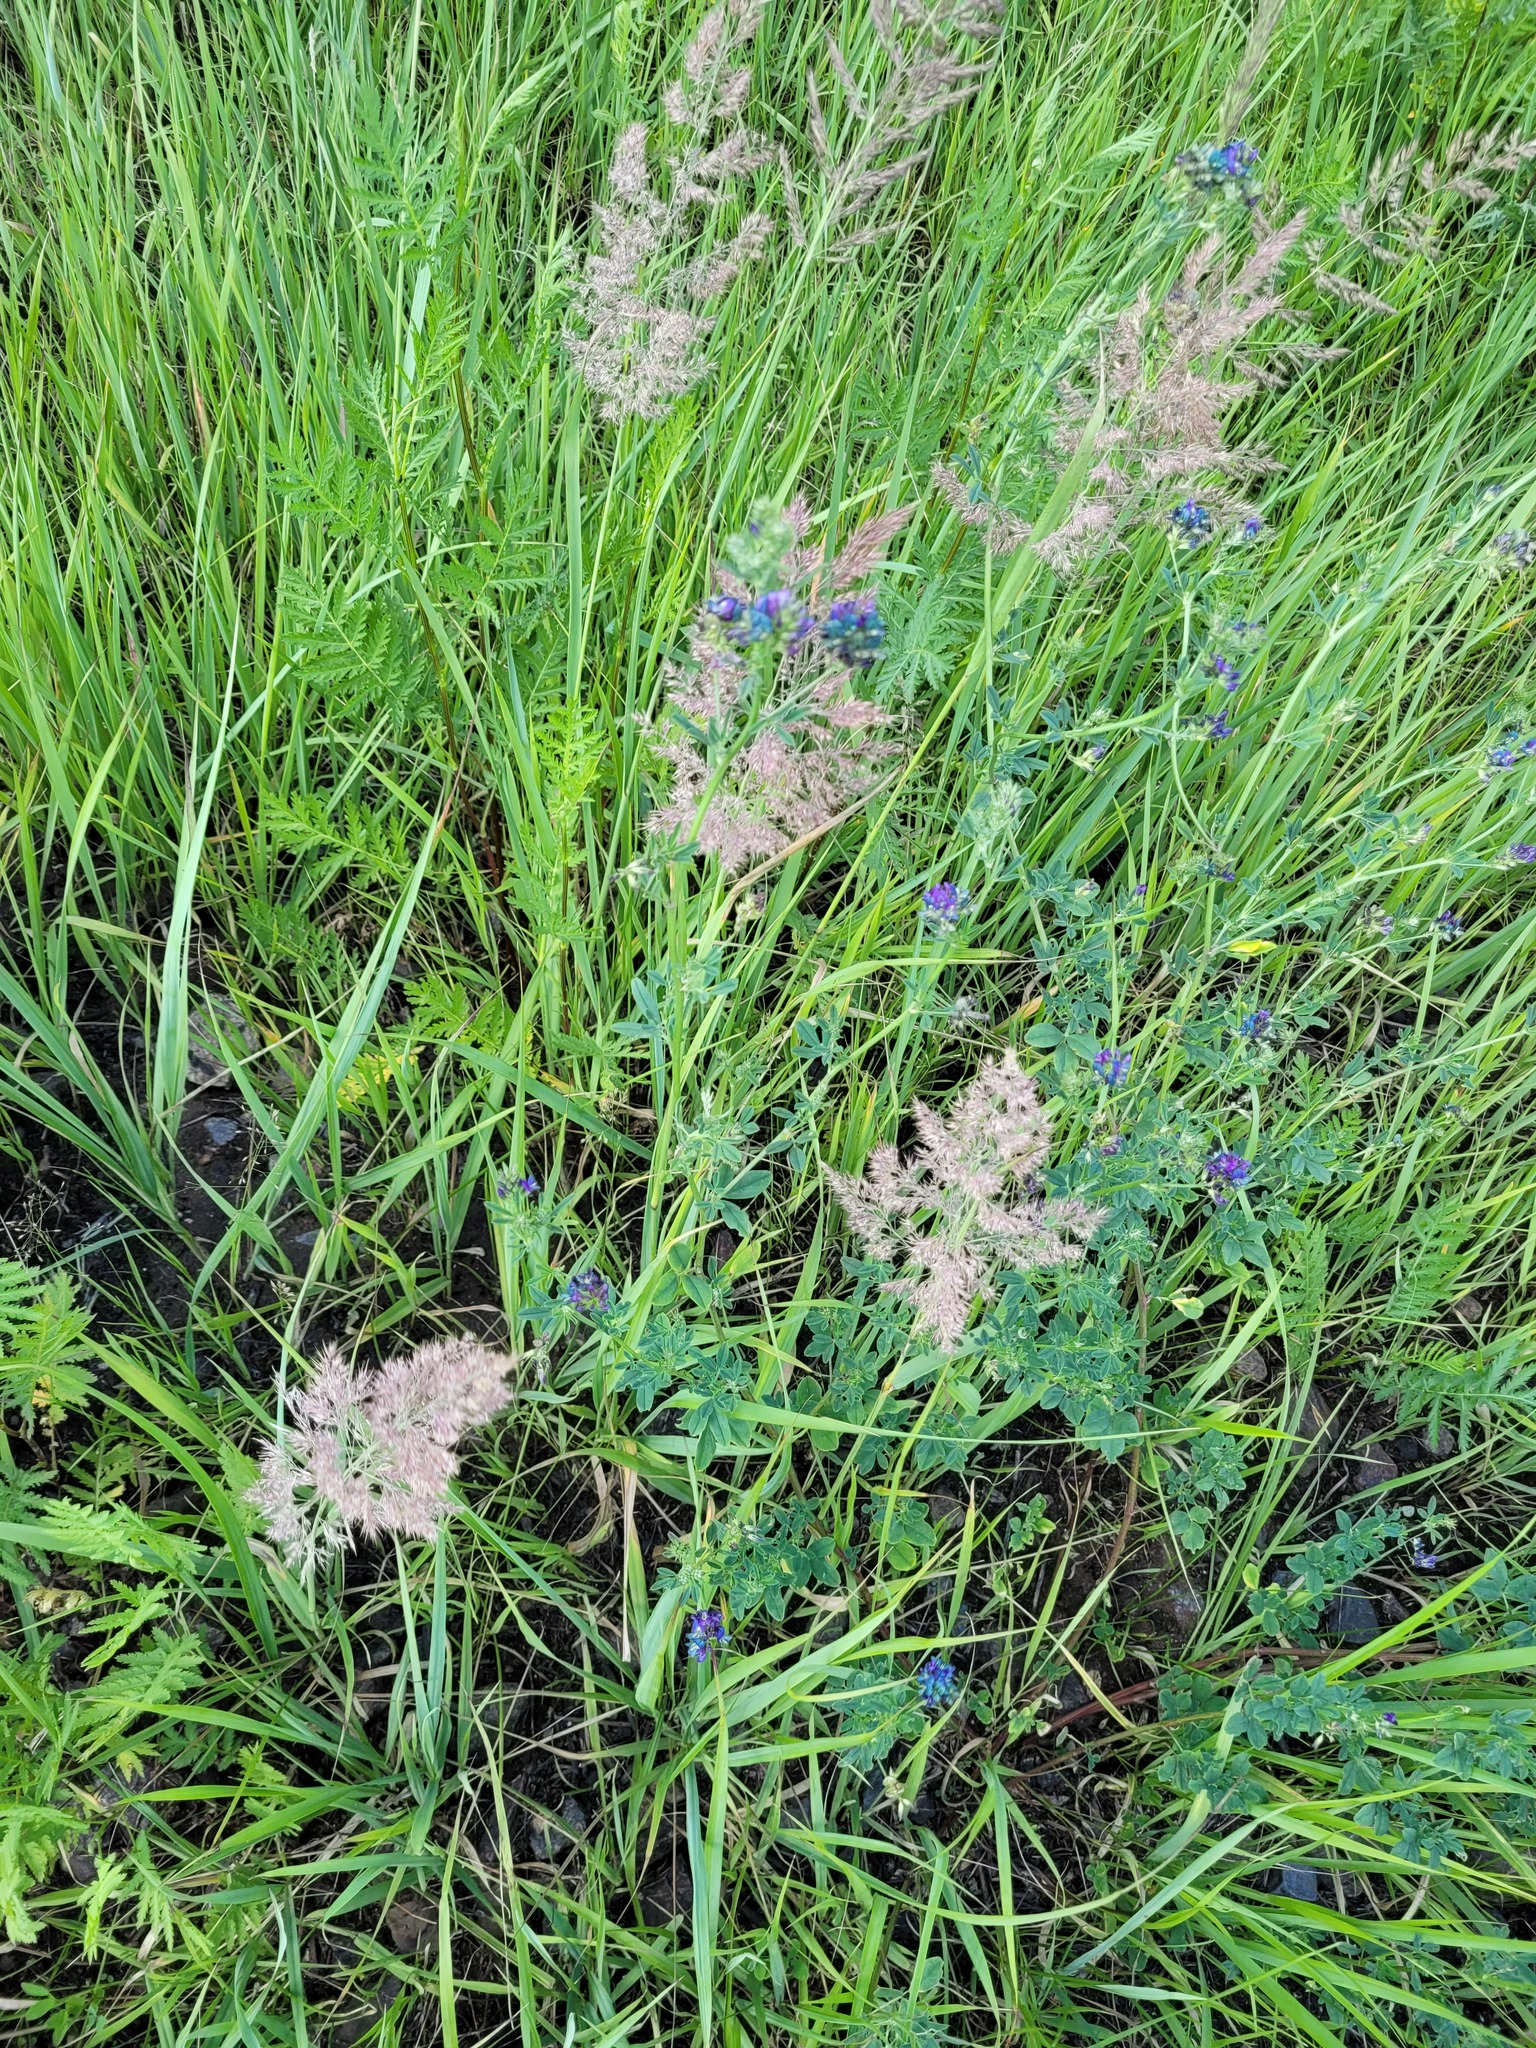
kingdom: Plantae
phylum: Tracheophyta
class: Liliopsida
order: Poales
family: Poaceae
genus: Calamagrostis
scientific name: Calamagrostis epigejos
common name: Wood small-reed
